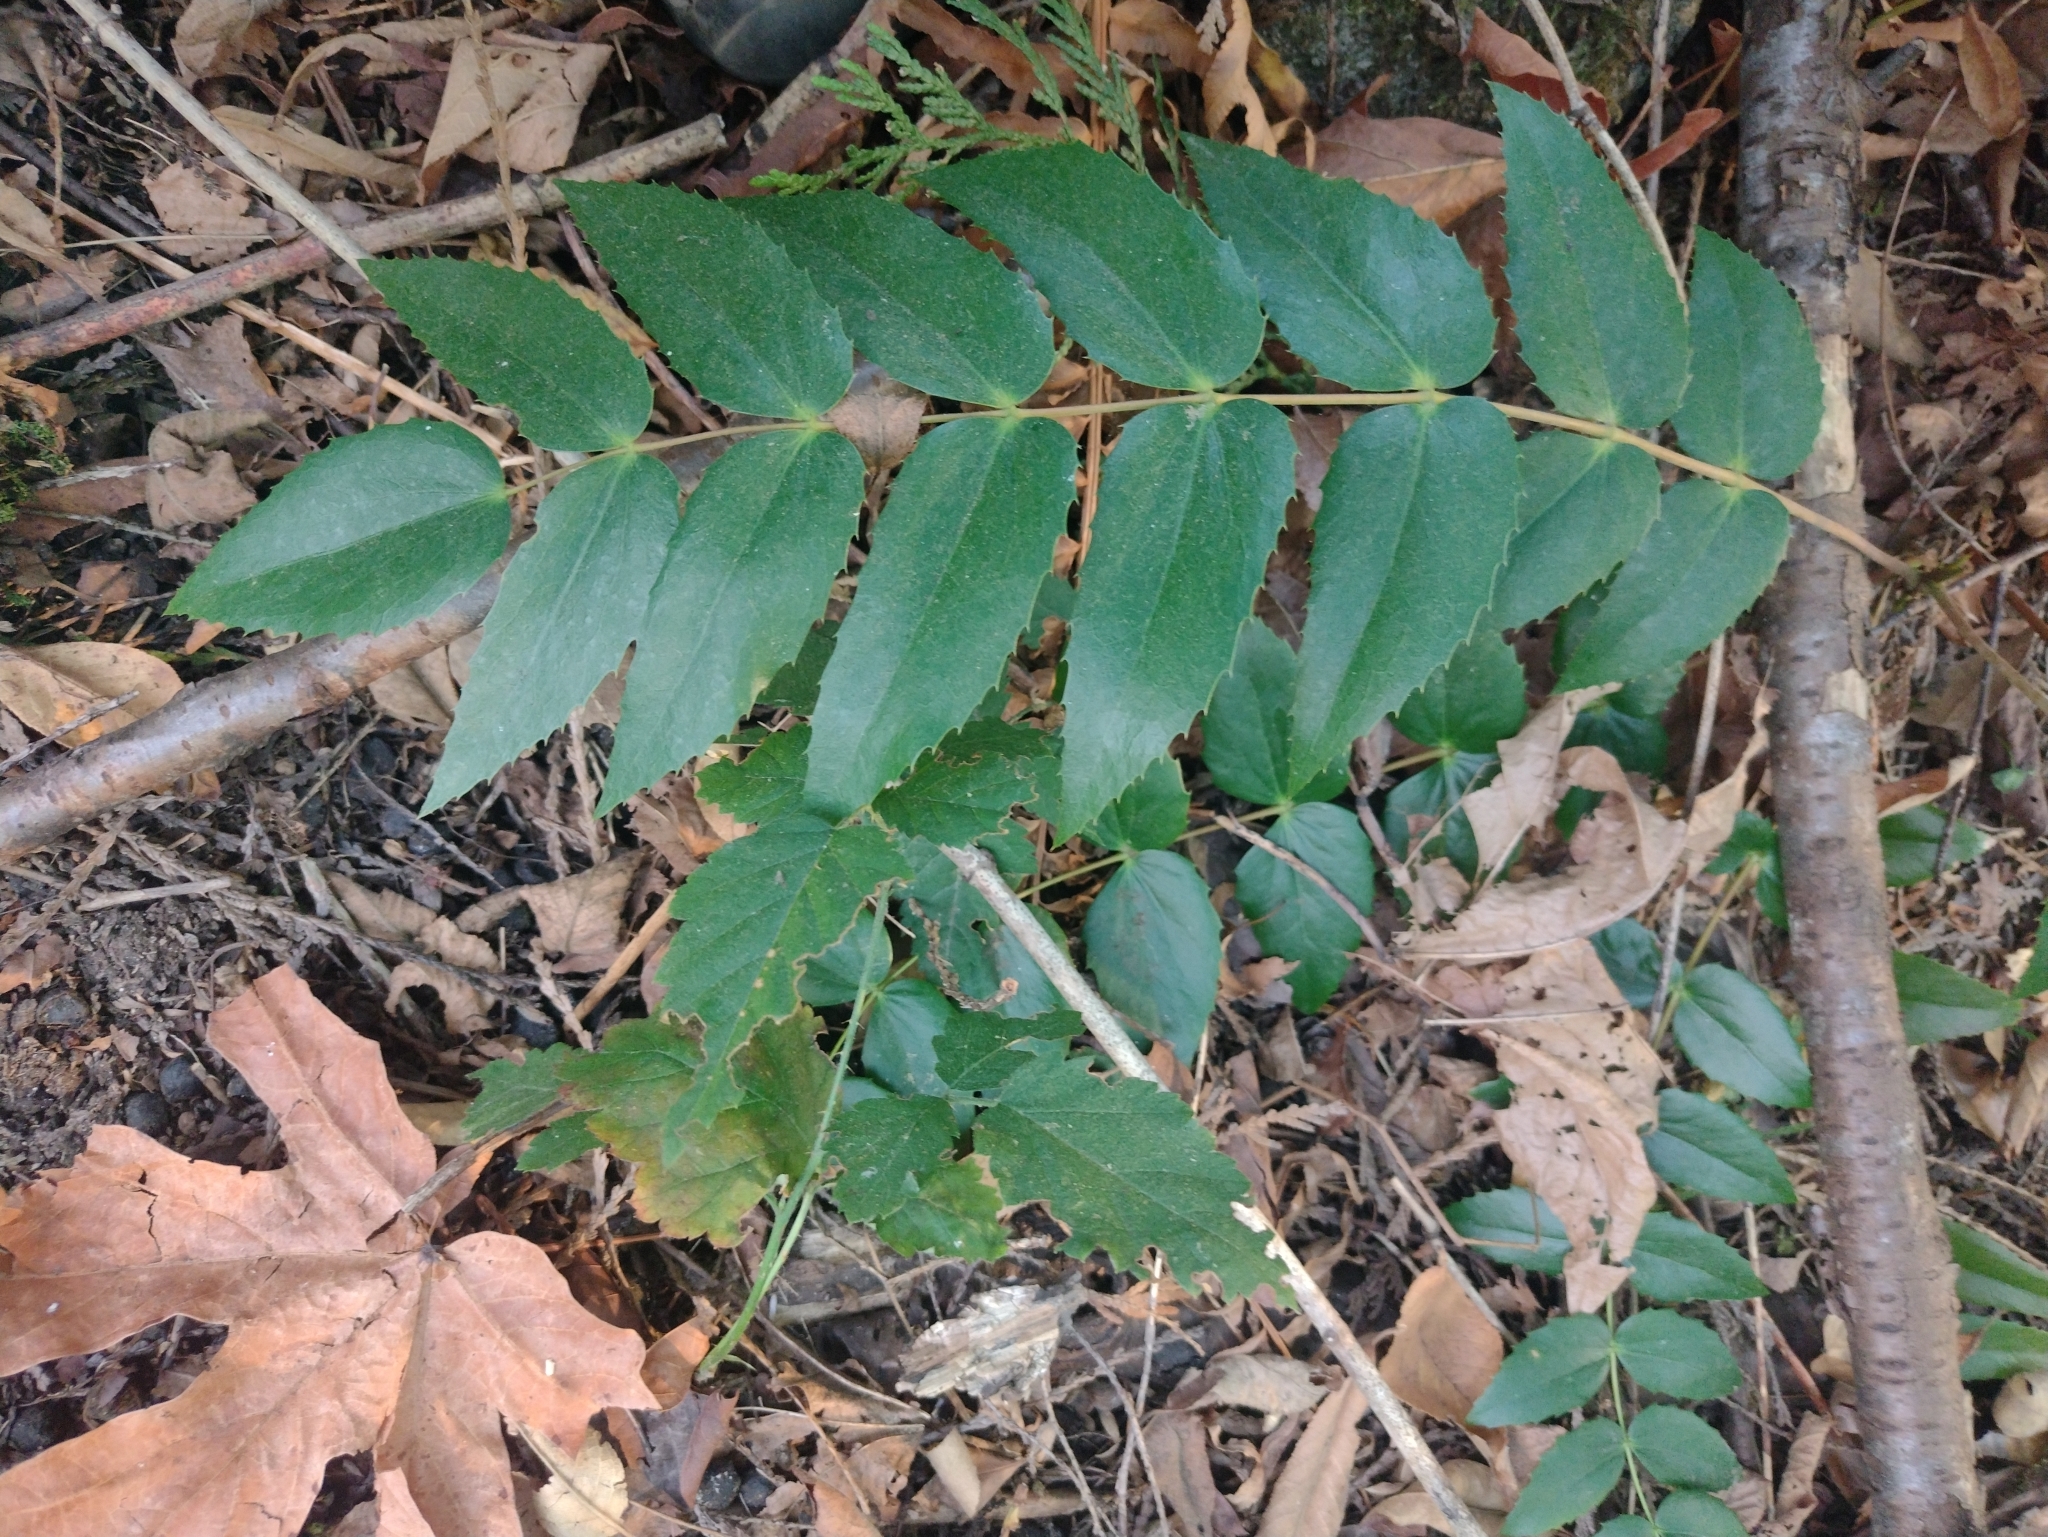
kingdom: Plantae
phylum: Tracheophyta
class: Magnoliopsida
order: Ranunculales
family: Berberidaceae
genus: Mahonia
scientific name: Mahonia nervosa
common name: Cascade oregon-grape
